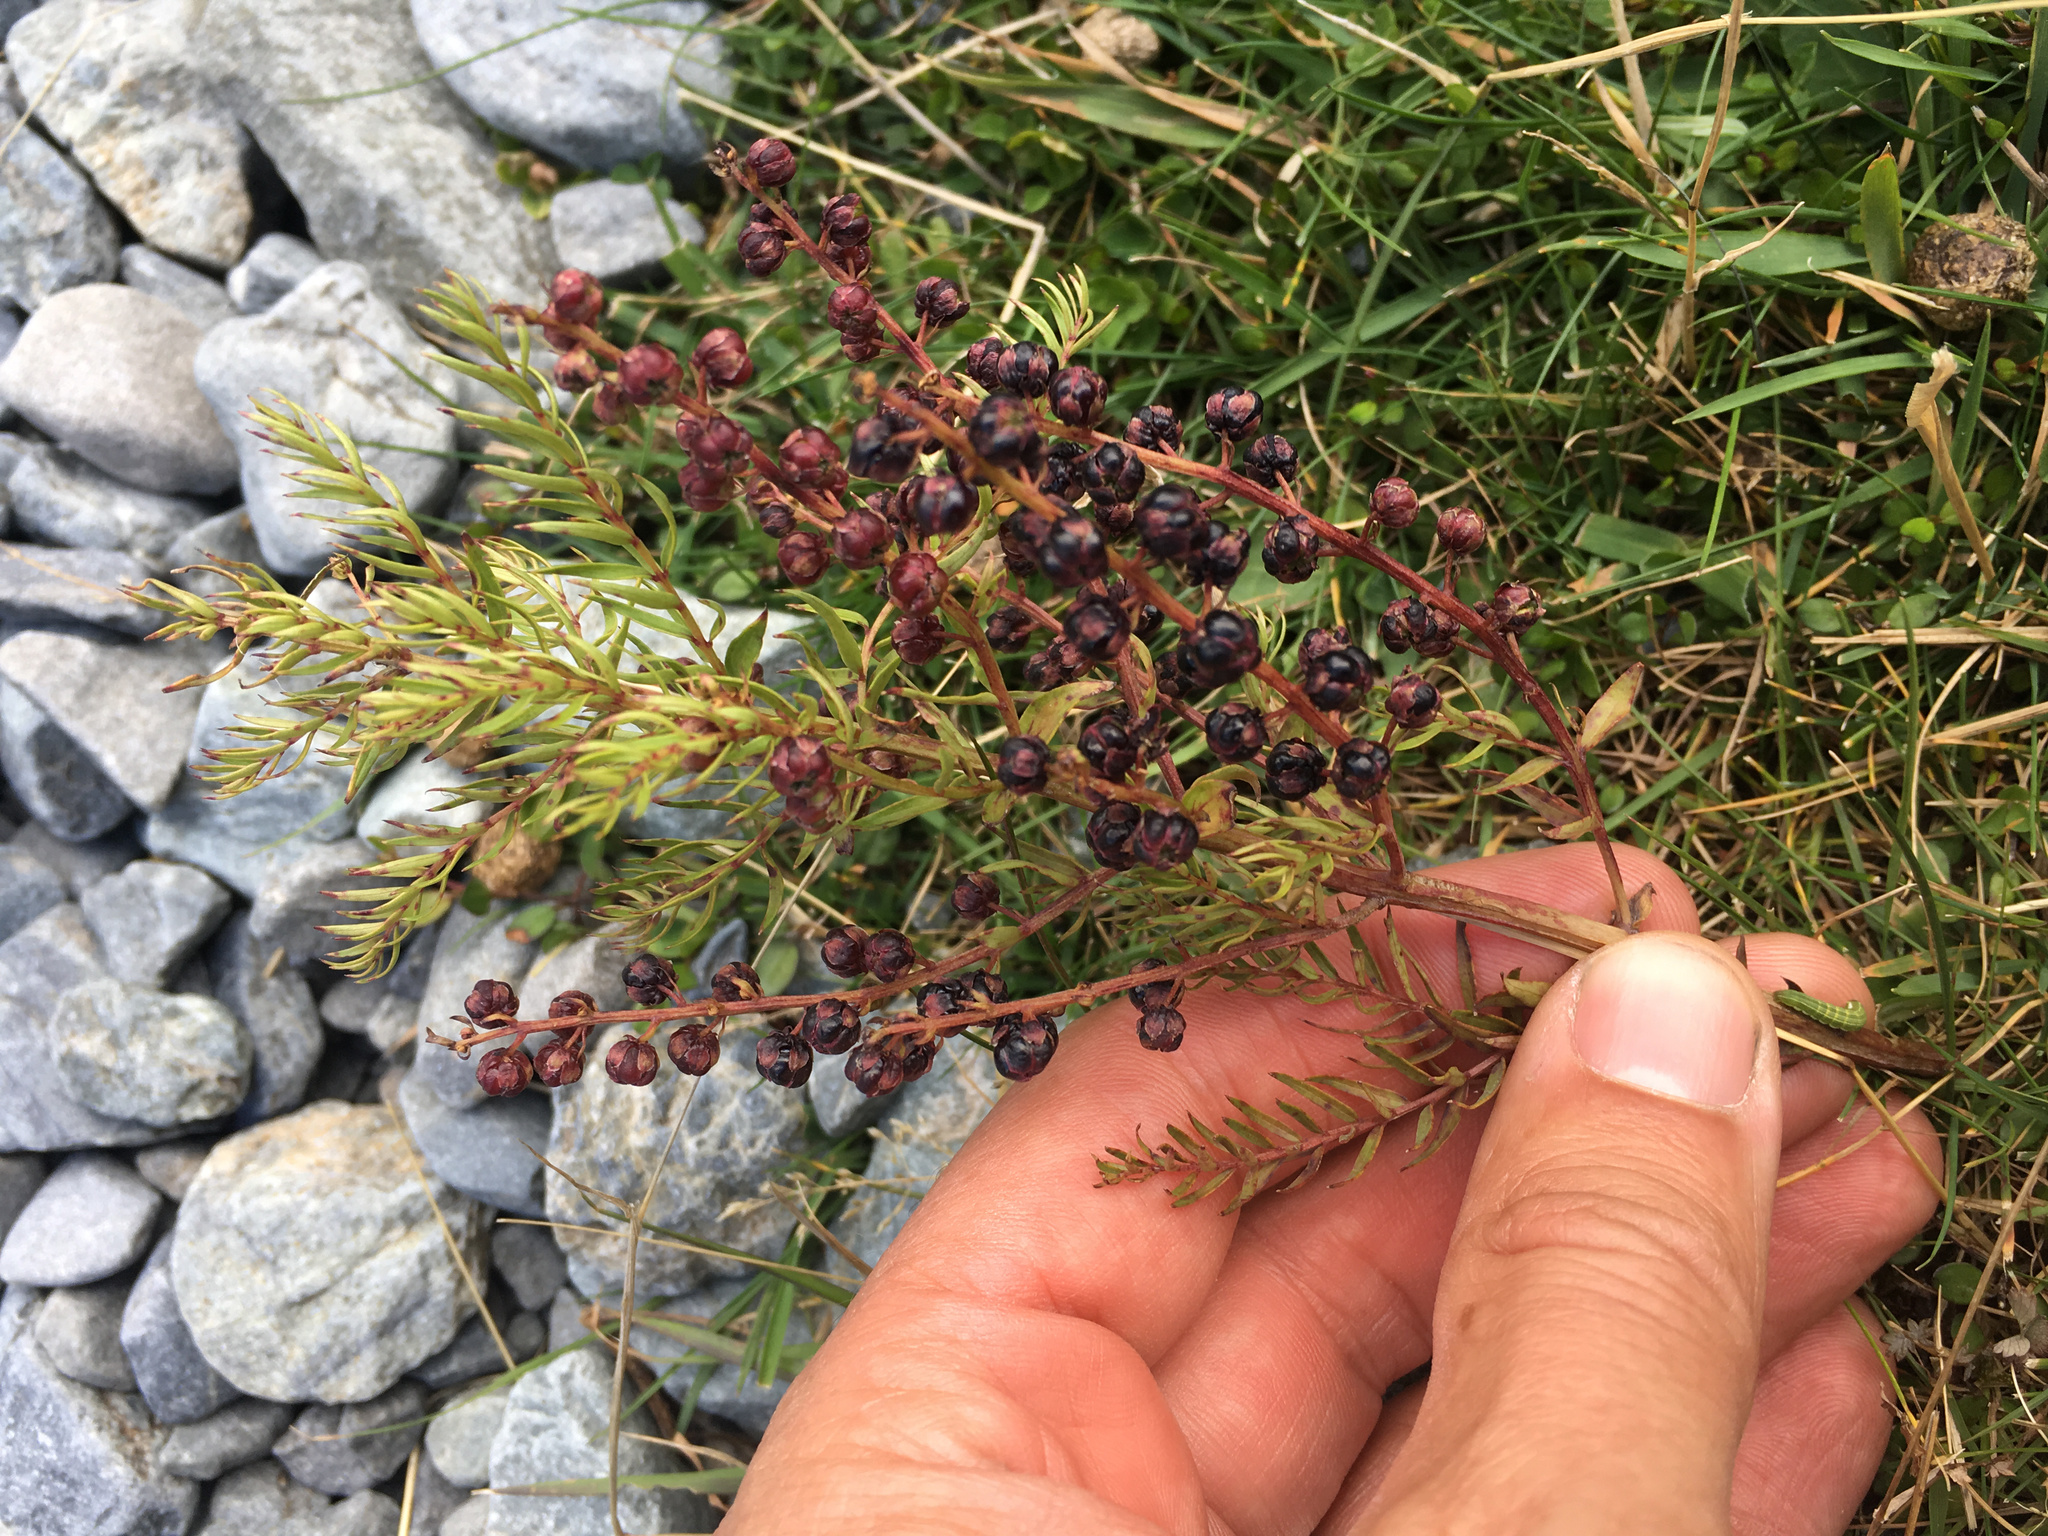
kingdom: Plantae
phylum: Tracheophyta
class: Magnoliopsida
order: Cucurbitales
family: Coriariaceae
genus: Coriaria
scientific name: Coriaria angustissima
